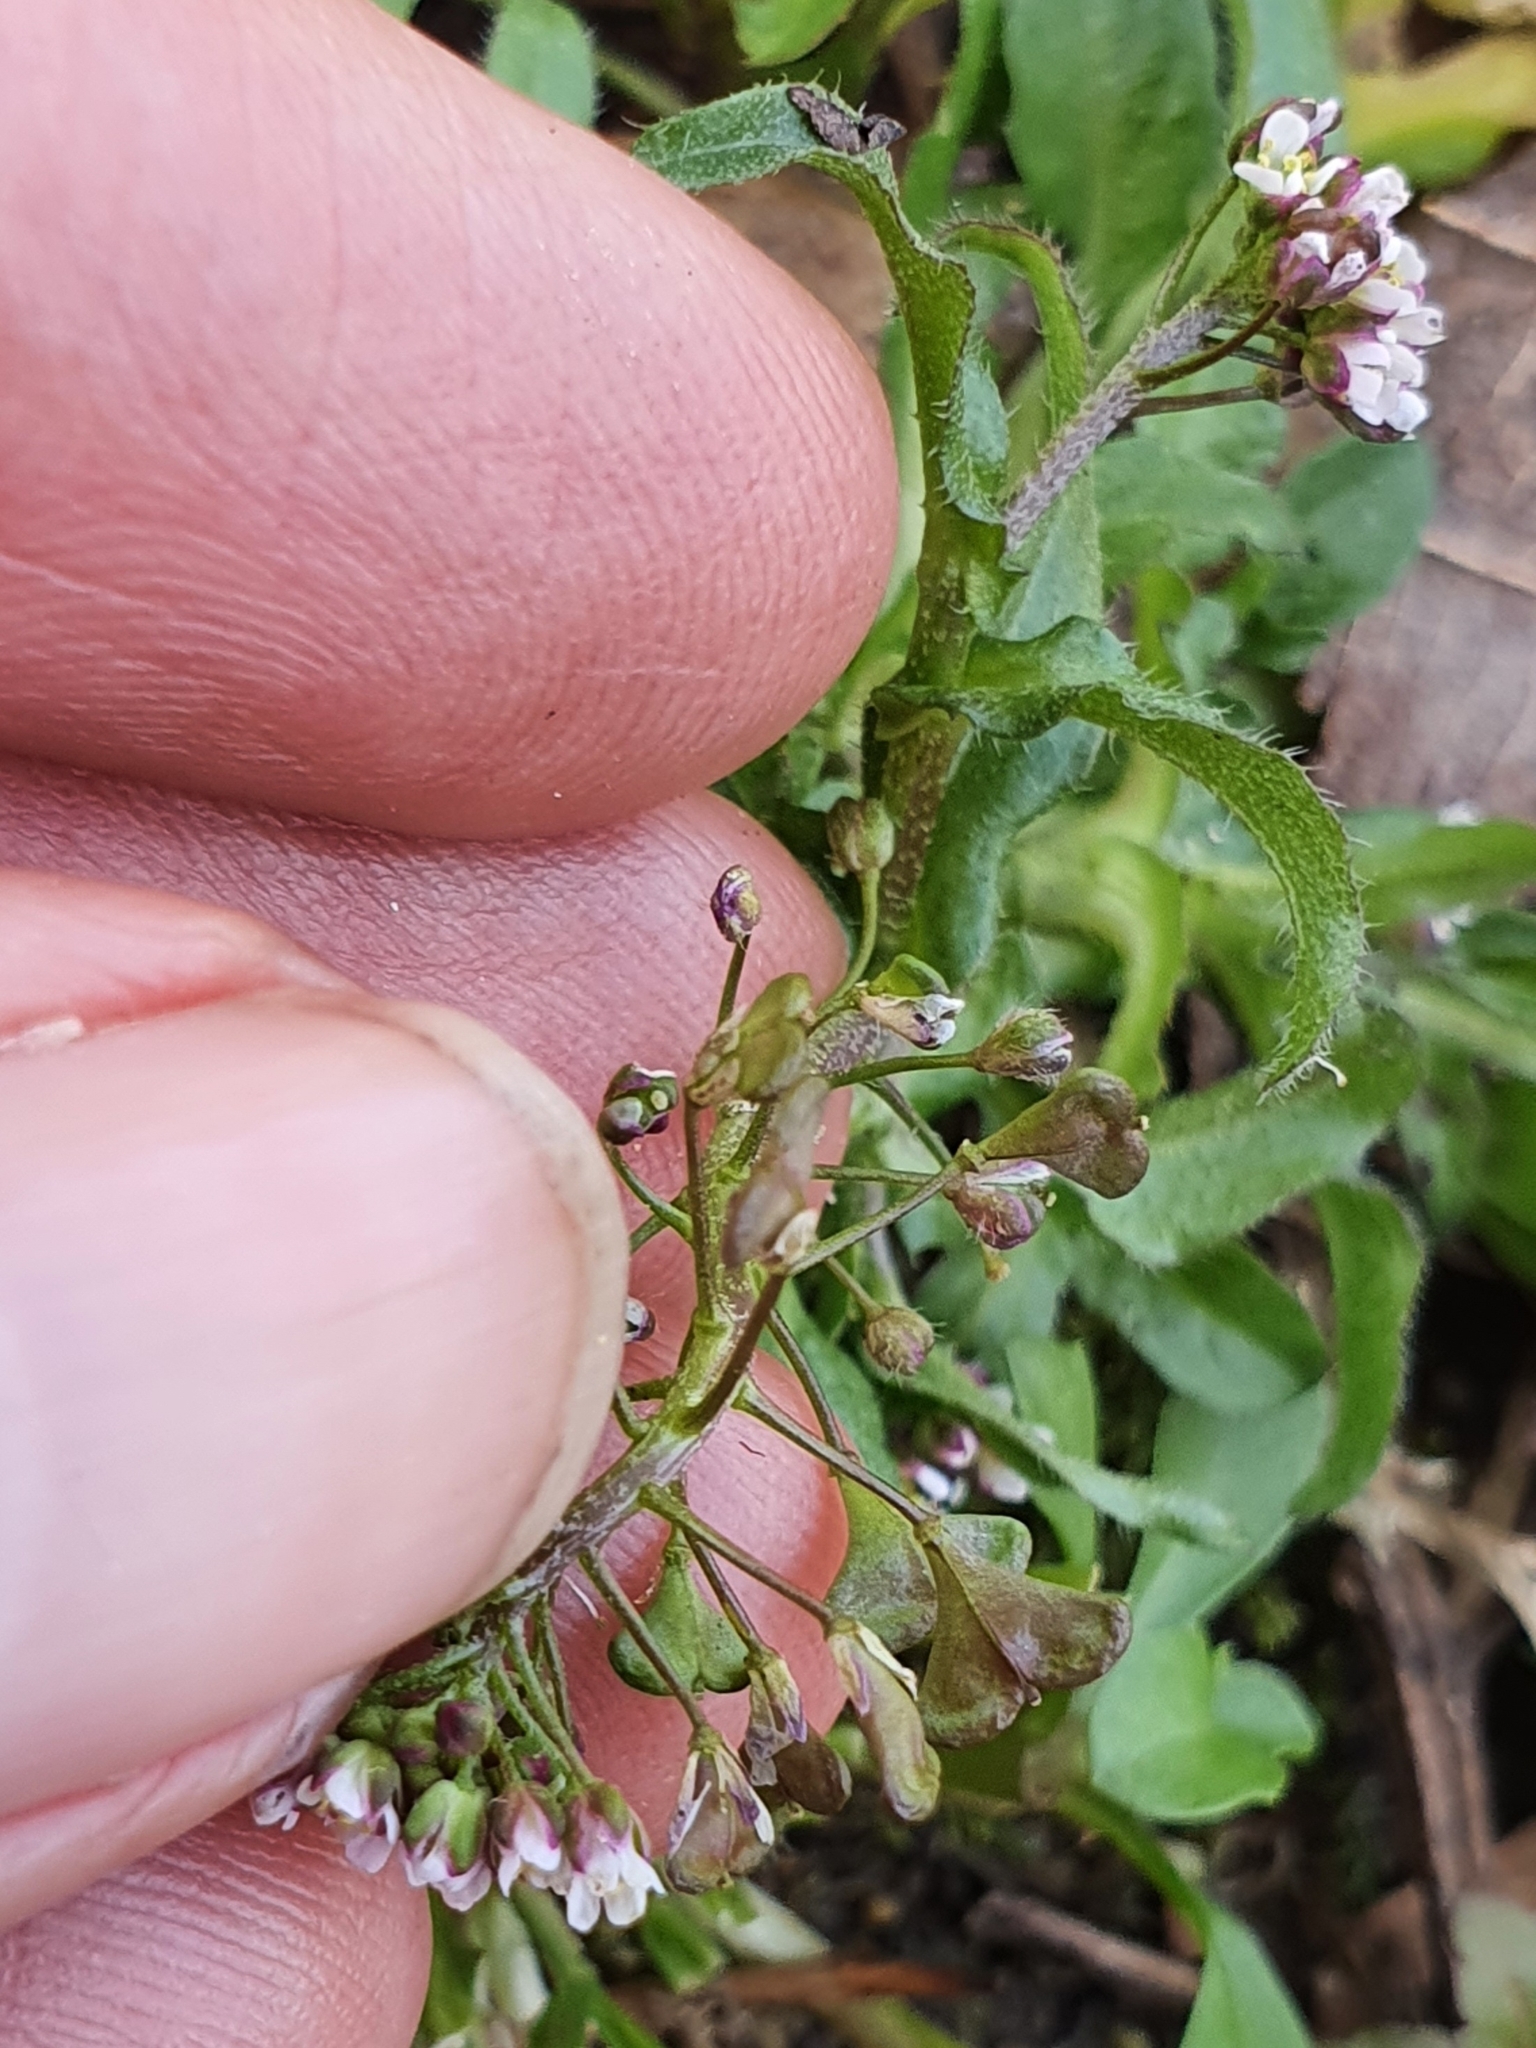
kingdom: Plantae
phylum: Tracheophyta
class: Magnoliopsida
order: Brassicales
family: Brassicaceae
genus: Capsella
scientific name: Capsella rubella
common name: Pink shepherd's-purse
